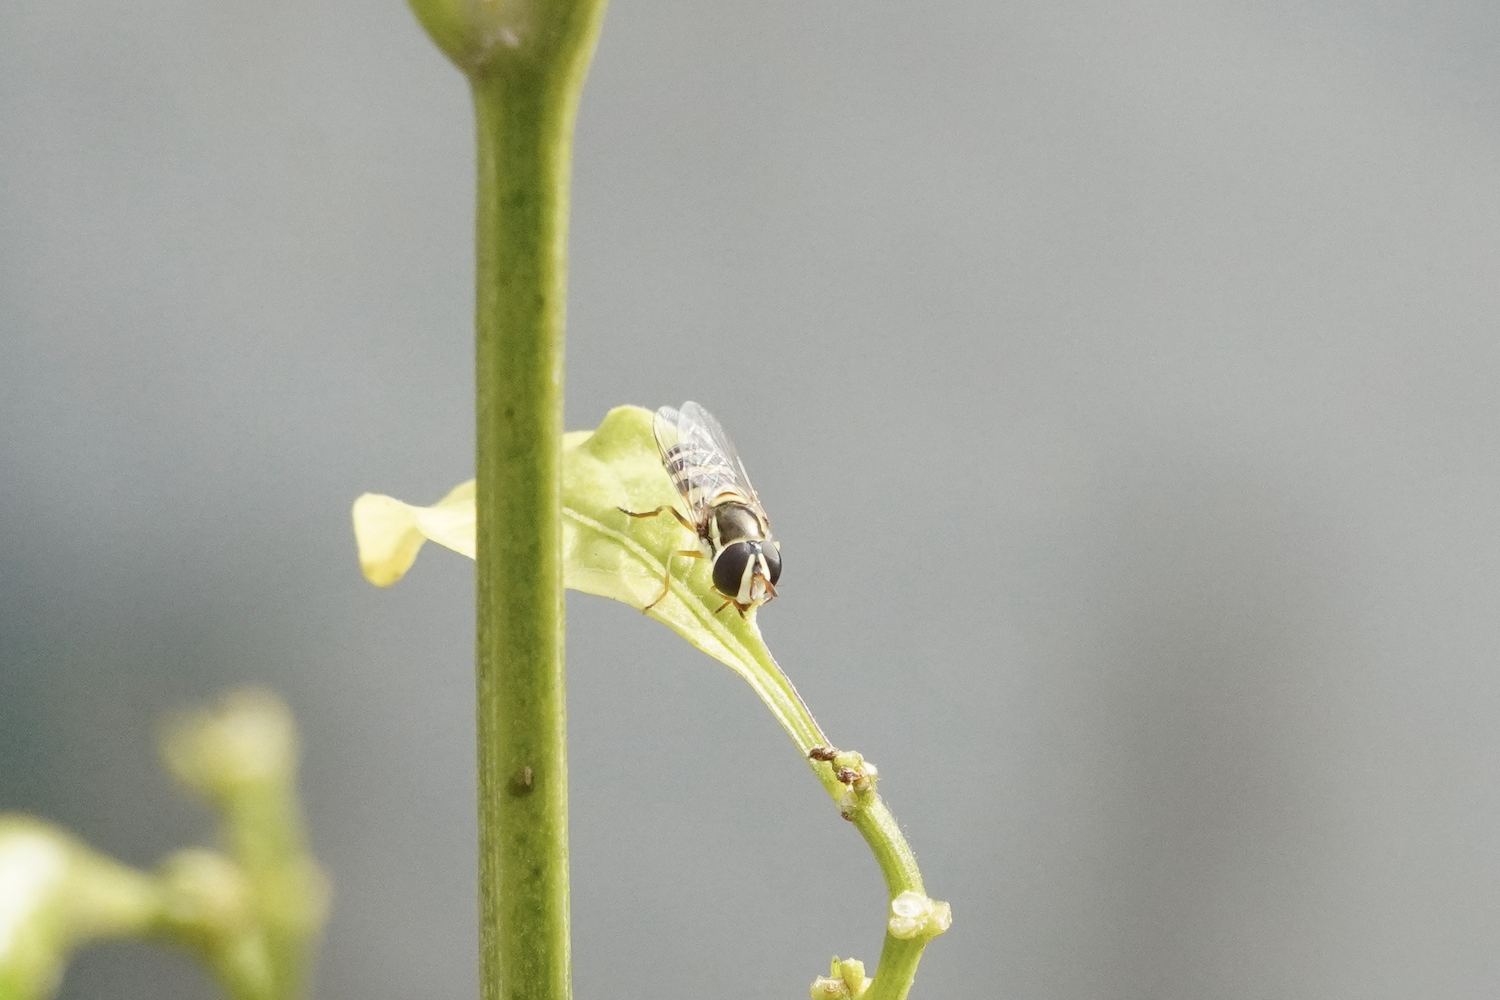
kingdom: Animalia
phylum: Arthropoda
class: Insecta
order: Diptera
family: Syrphidae
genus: Ischiodon
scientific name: Ischiodon scutellaris
